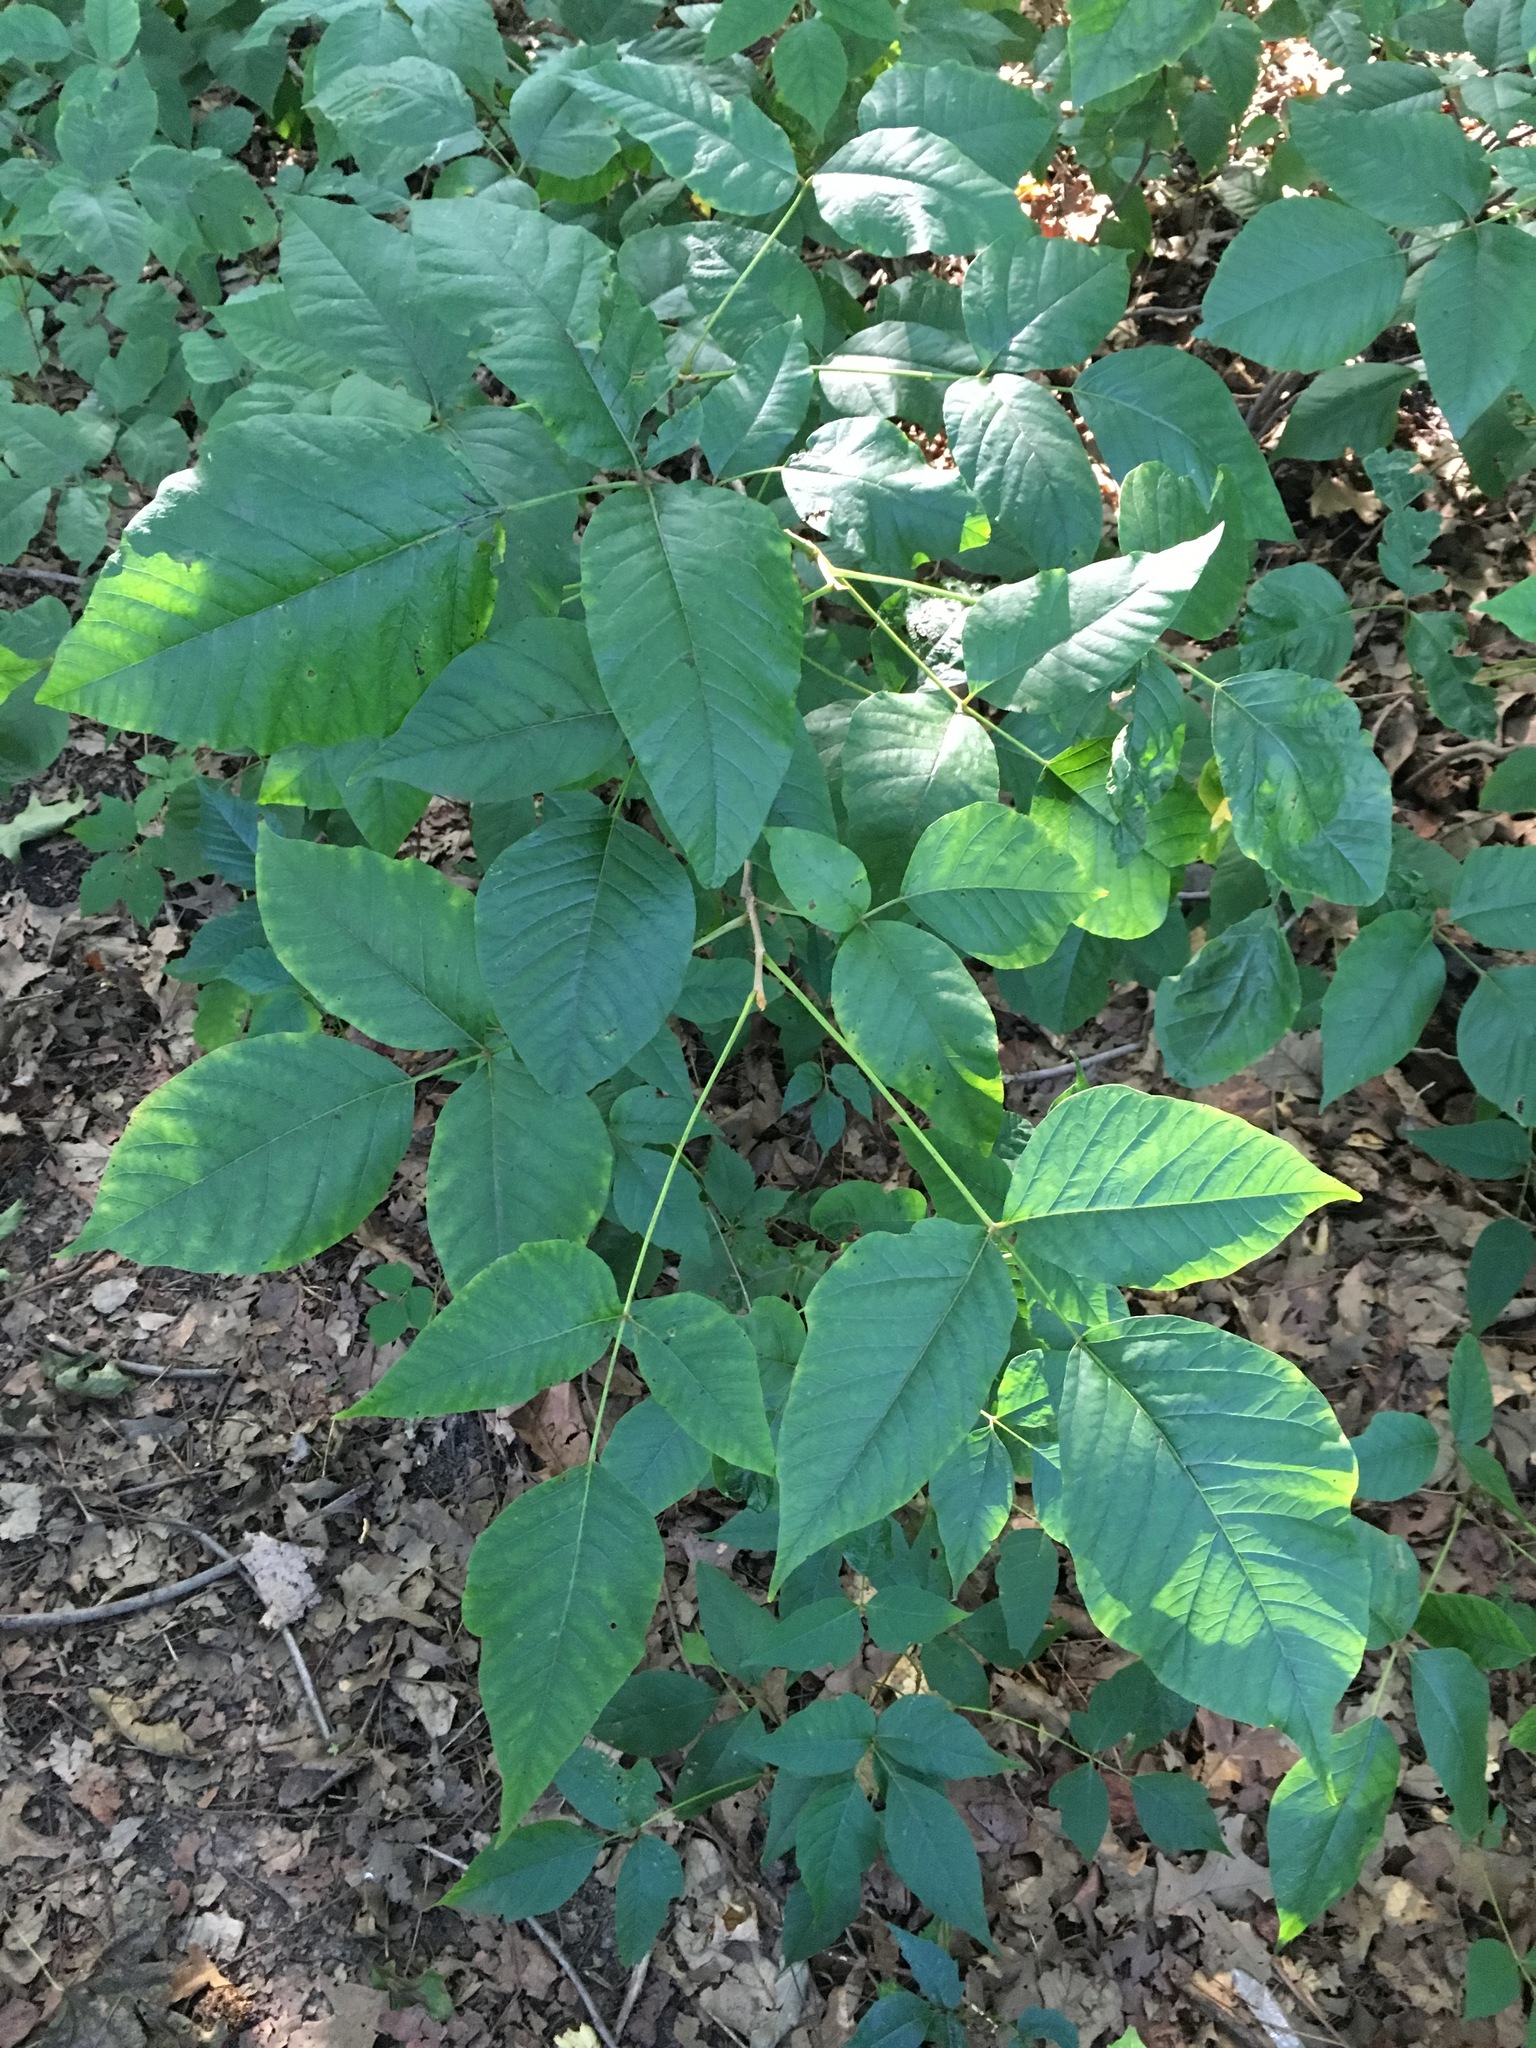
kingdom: Plantae
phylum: Tracheophyta
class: Magnoliopsida
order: Sapindales
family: Anacardiaceae
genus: Toxicodendron
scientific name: Toxicodendron radicans
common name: Poison ivy
